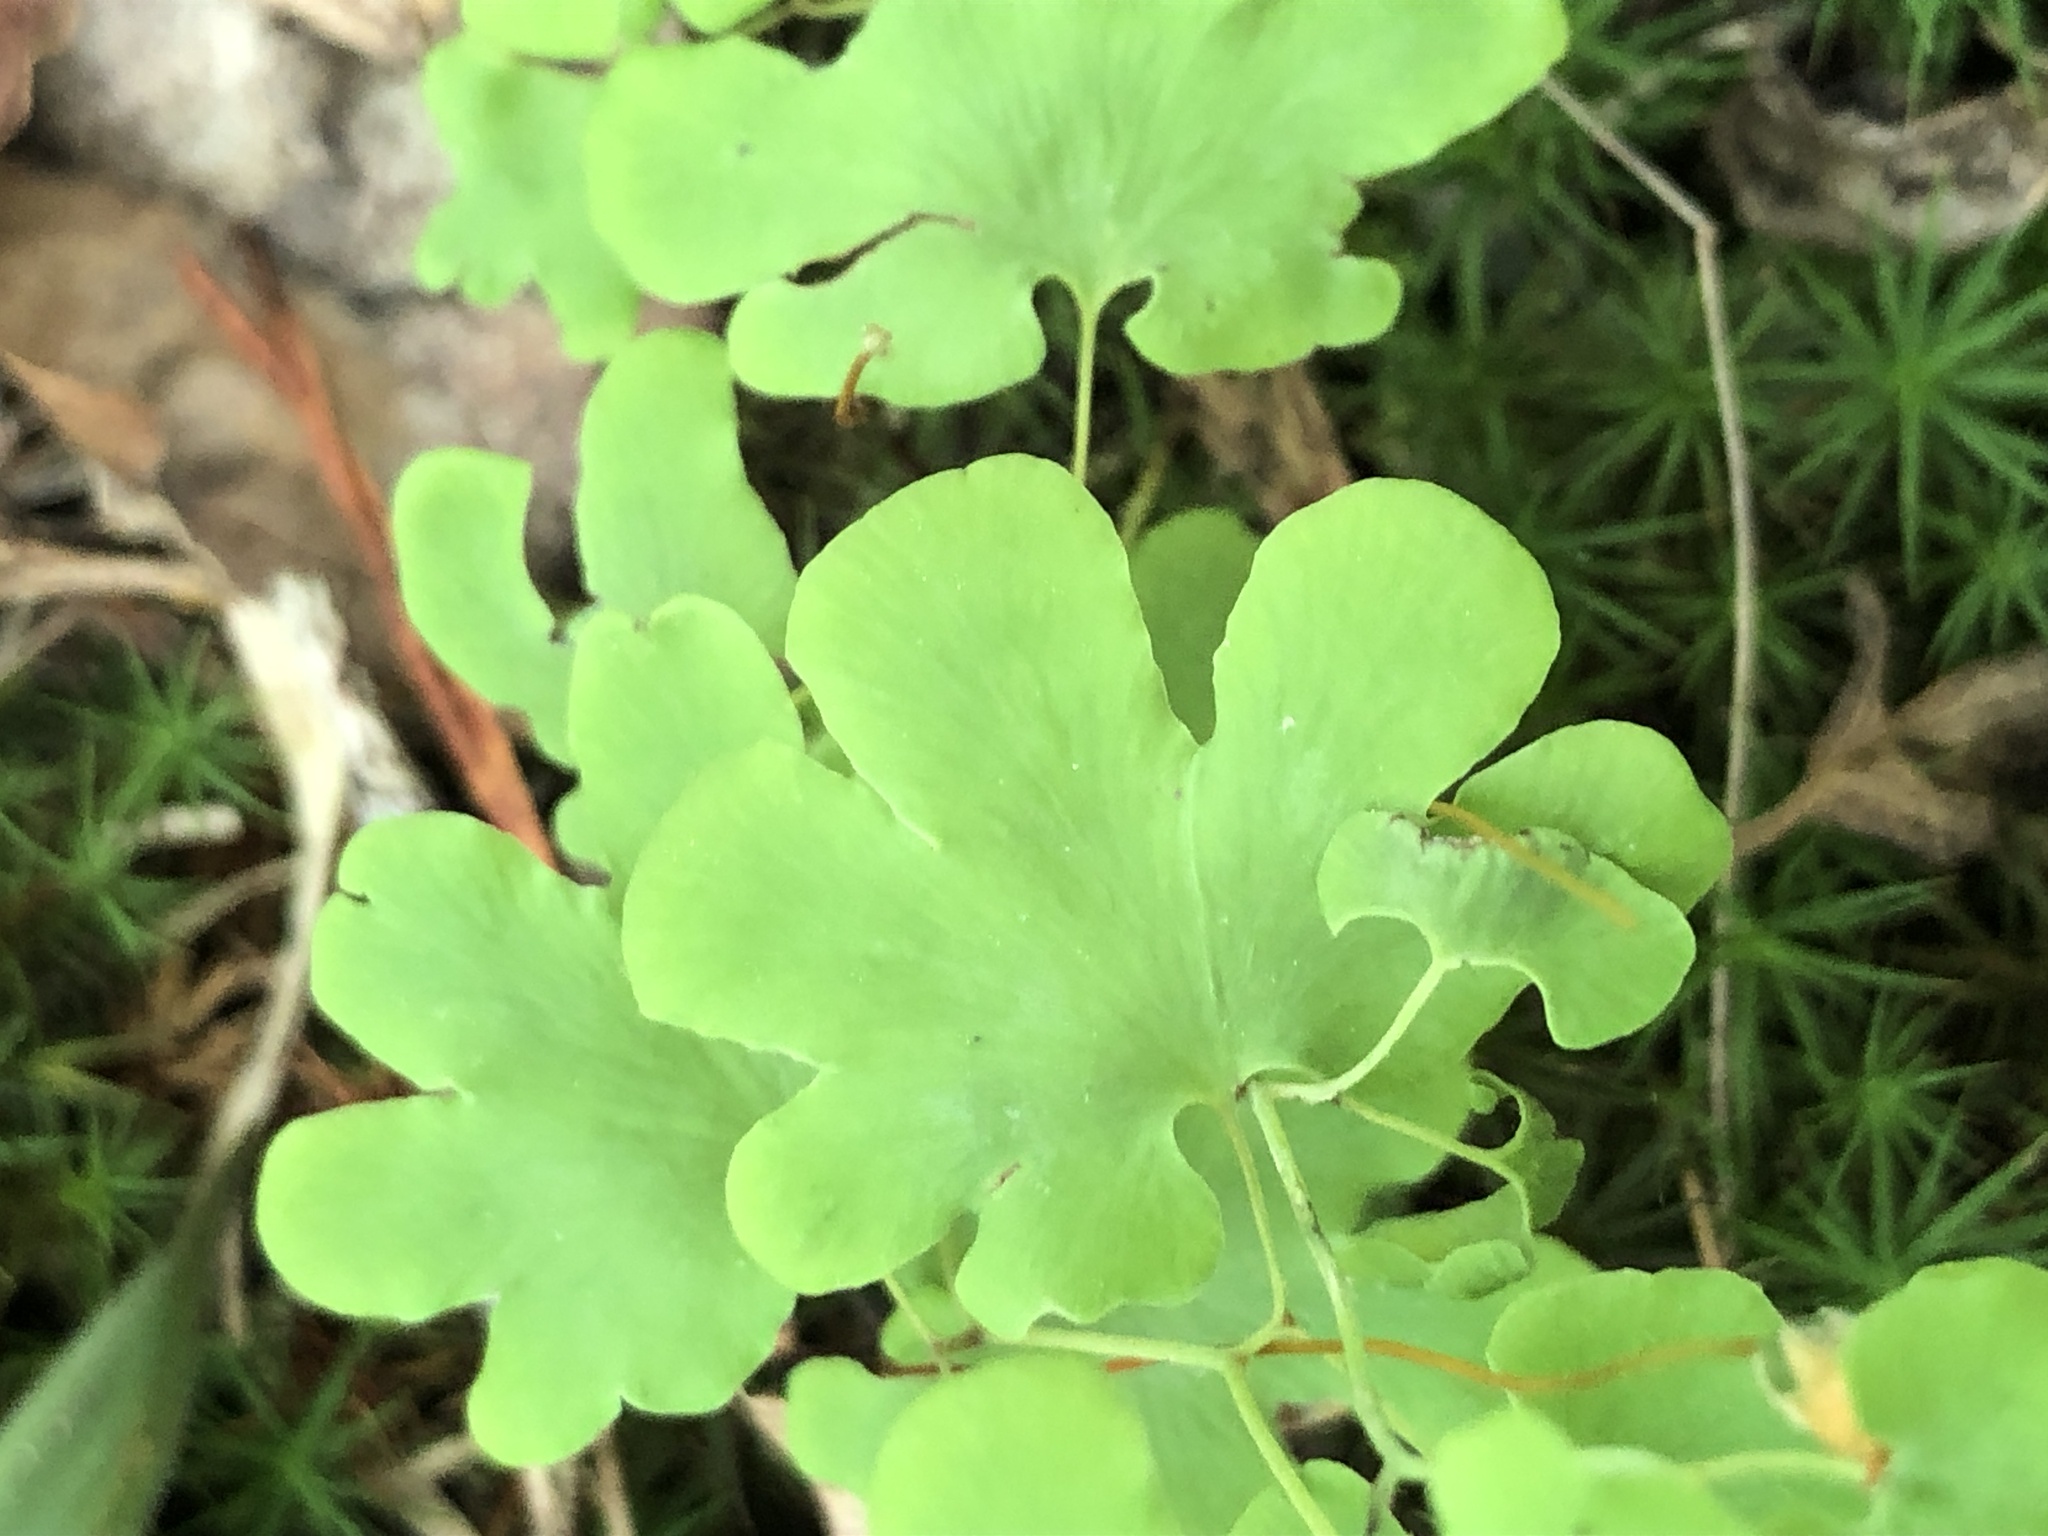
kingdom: Plantae
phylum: Tracheophyta
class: Polypodiopsida
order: Schizaeales
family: Lygodiaceae
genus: Lygodium
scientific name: Lygodium palmatum
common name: American climbing fern
